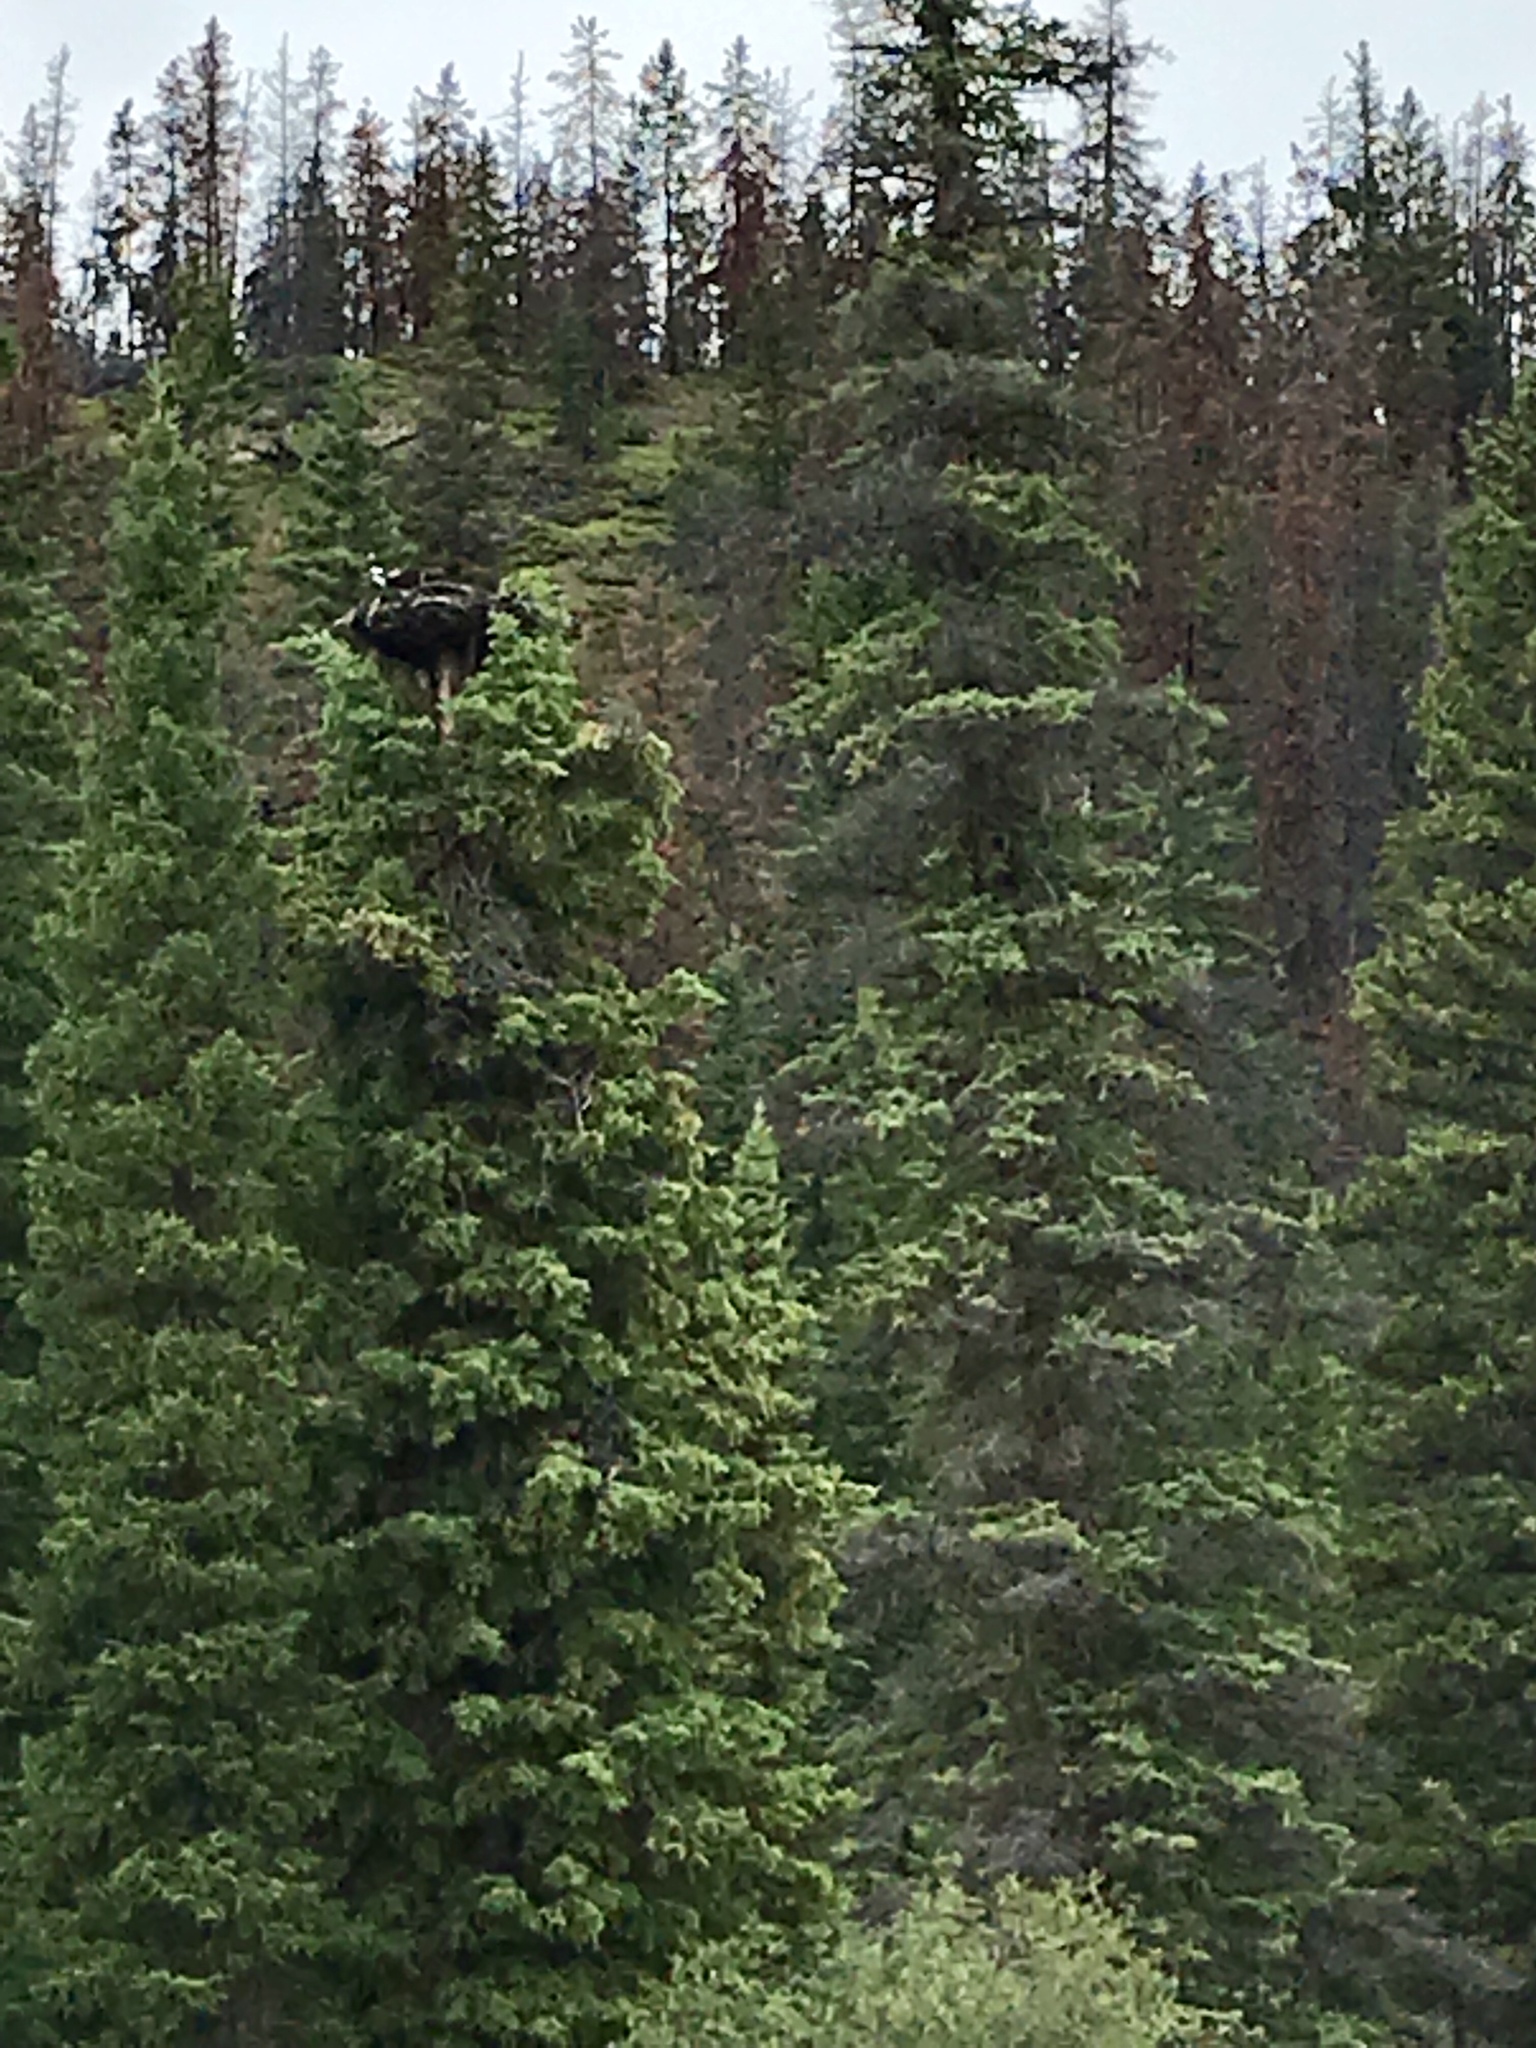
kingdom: Animalia
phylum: Chordata
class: Aves
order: Accipitriformes
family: Pandionidae
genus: Pandion
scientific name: Pandion haliaetus
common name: Osprey
